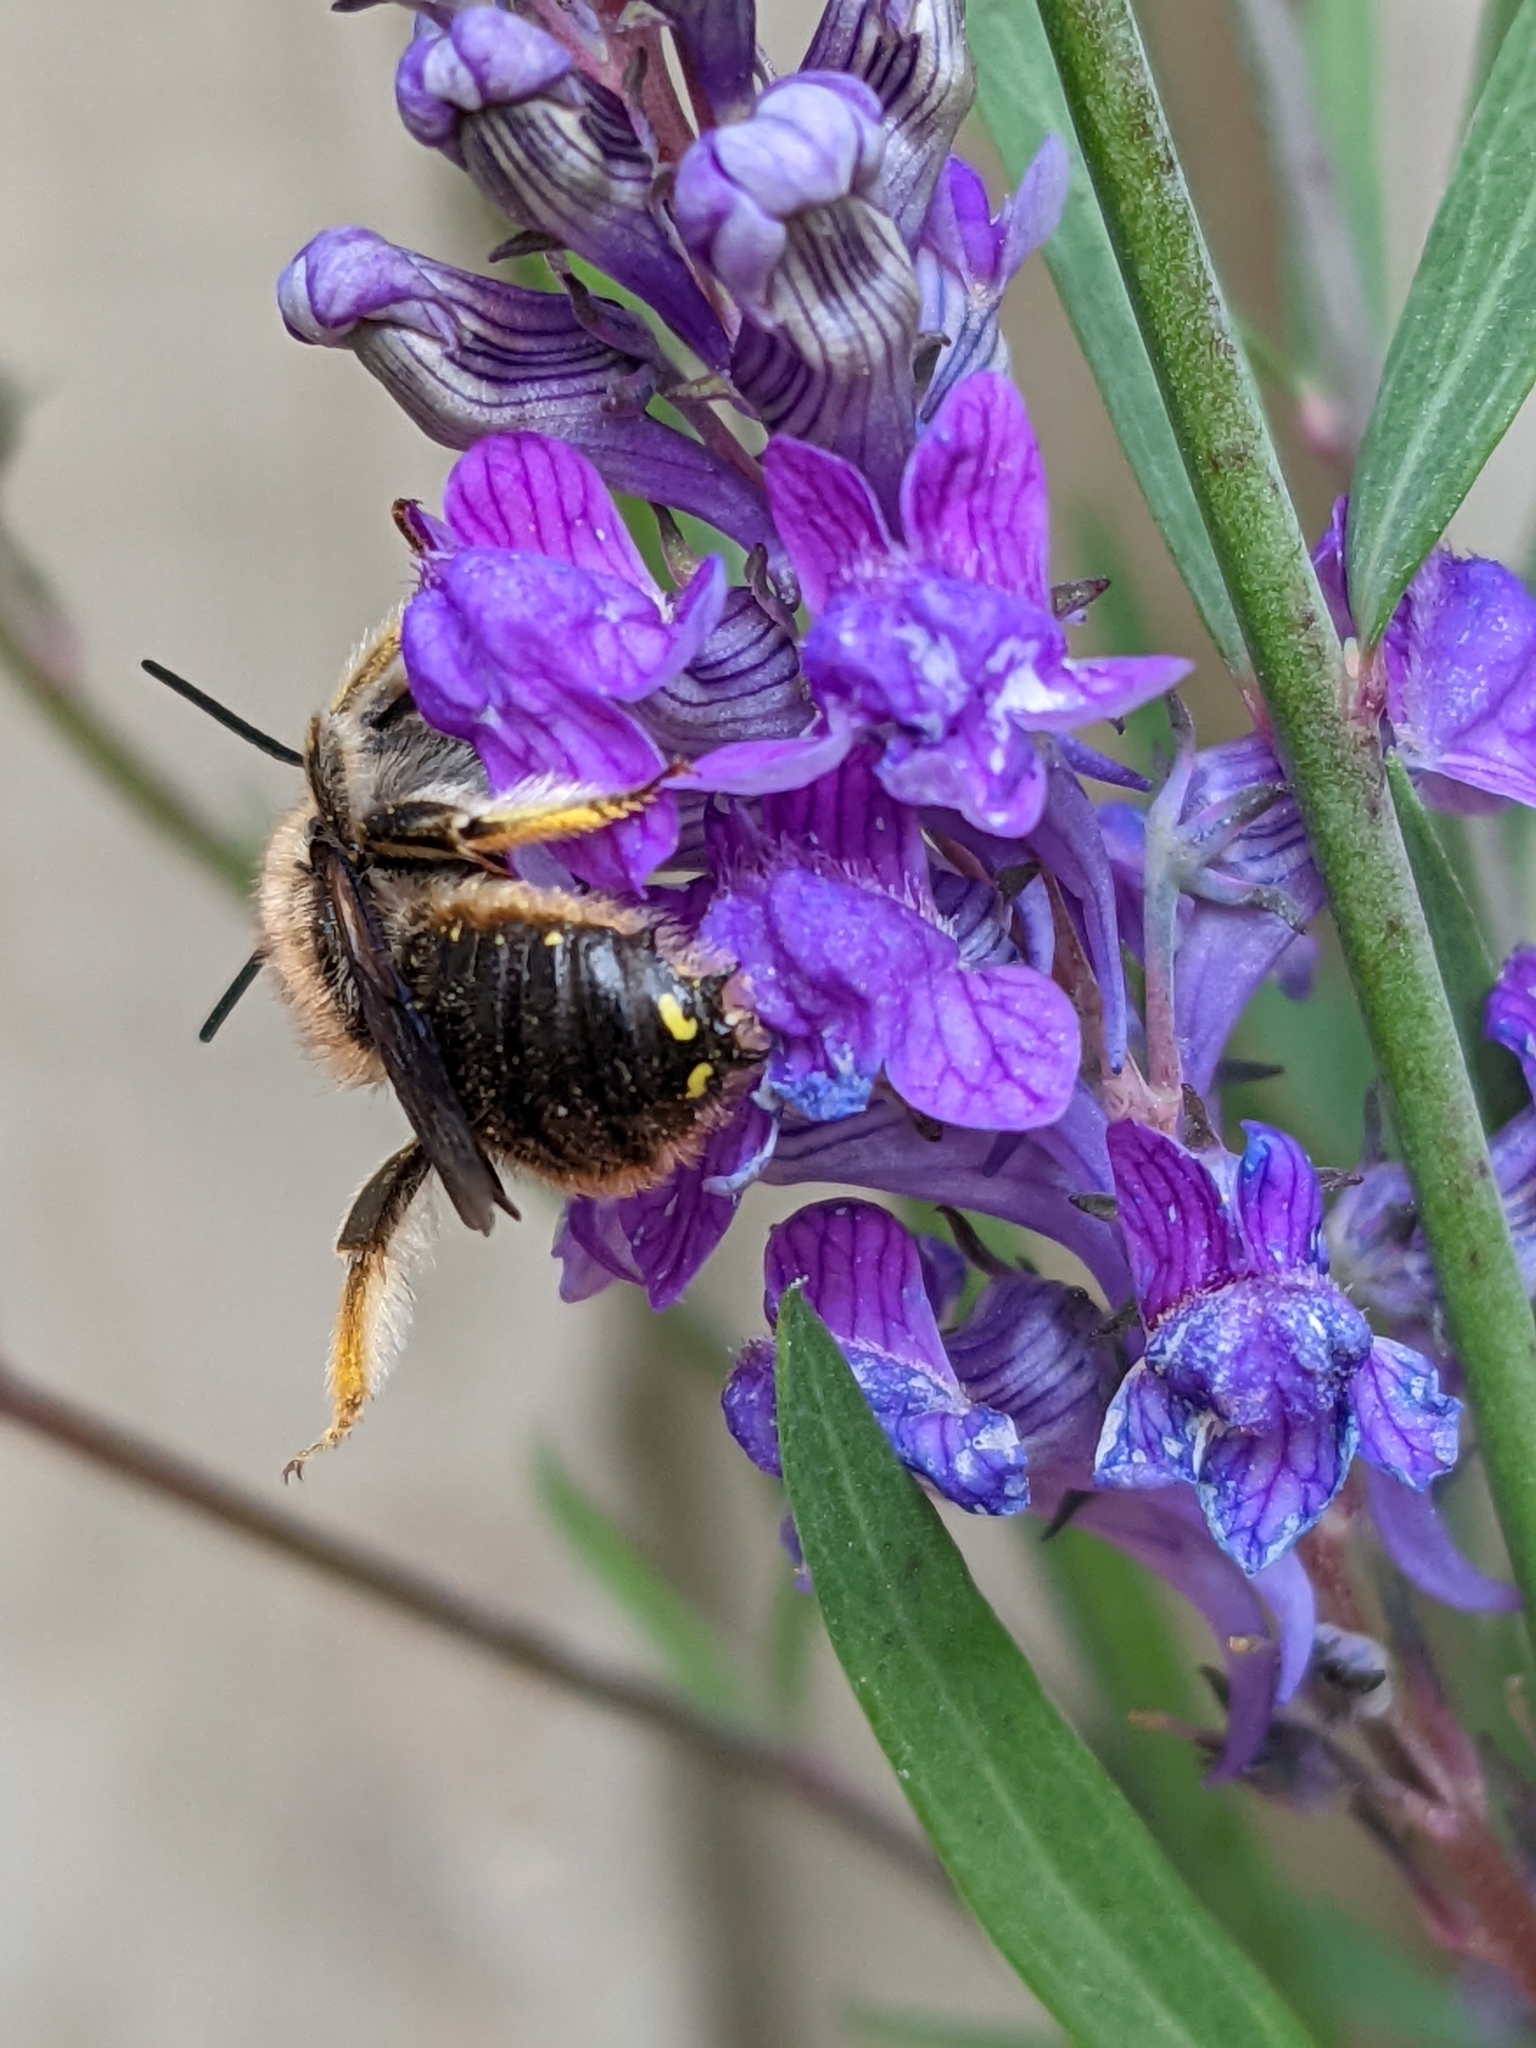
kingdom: Animalia
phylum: Arthropoda
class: Insecta
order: Hymenoptera
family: Megachilidae
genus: Anthidium
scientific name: Anthidium manicatum
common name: Wool carder bee
